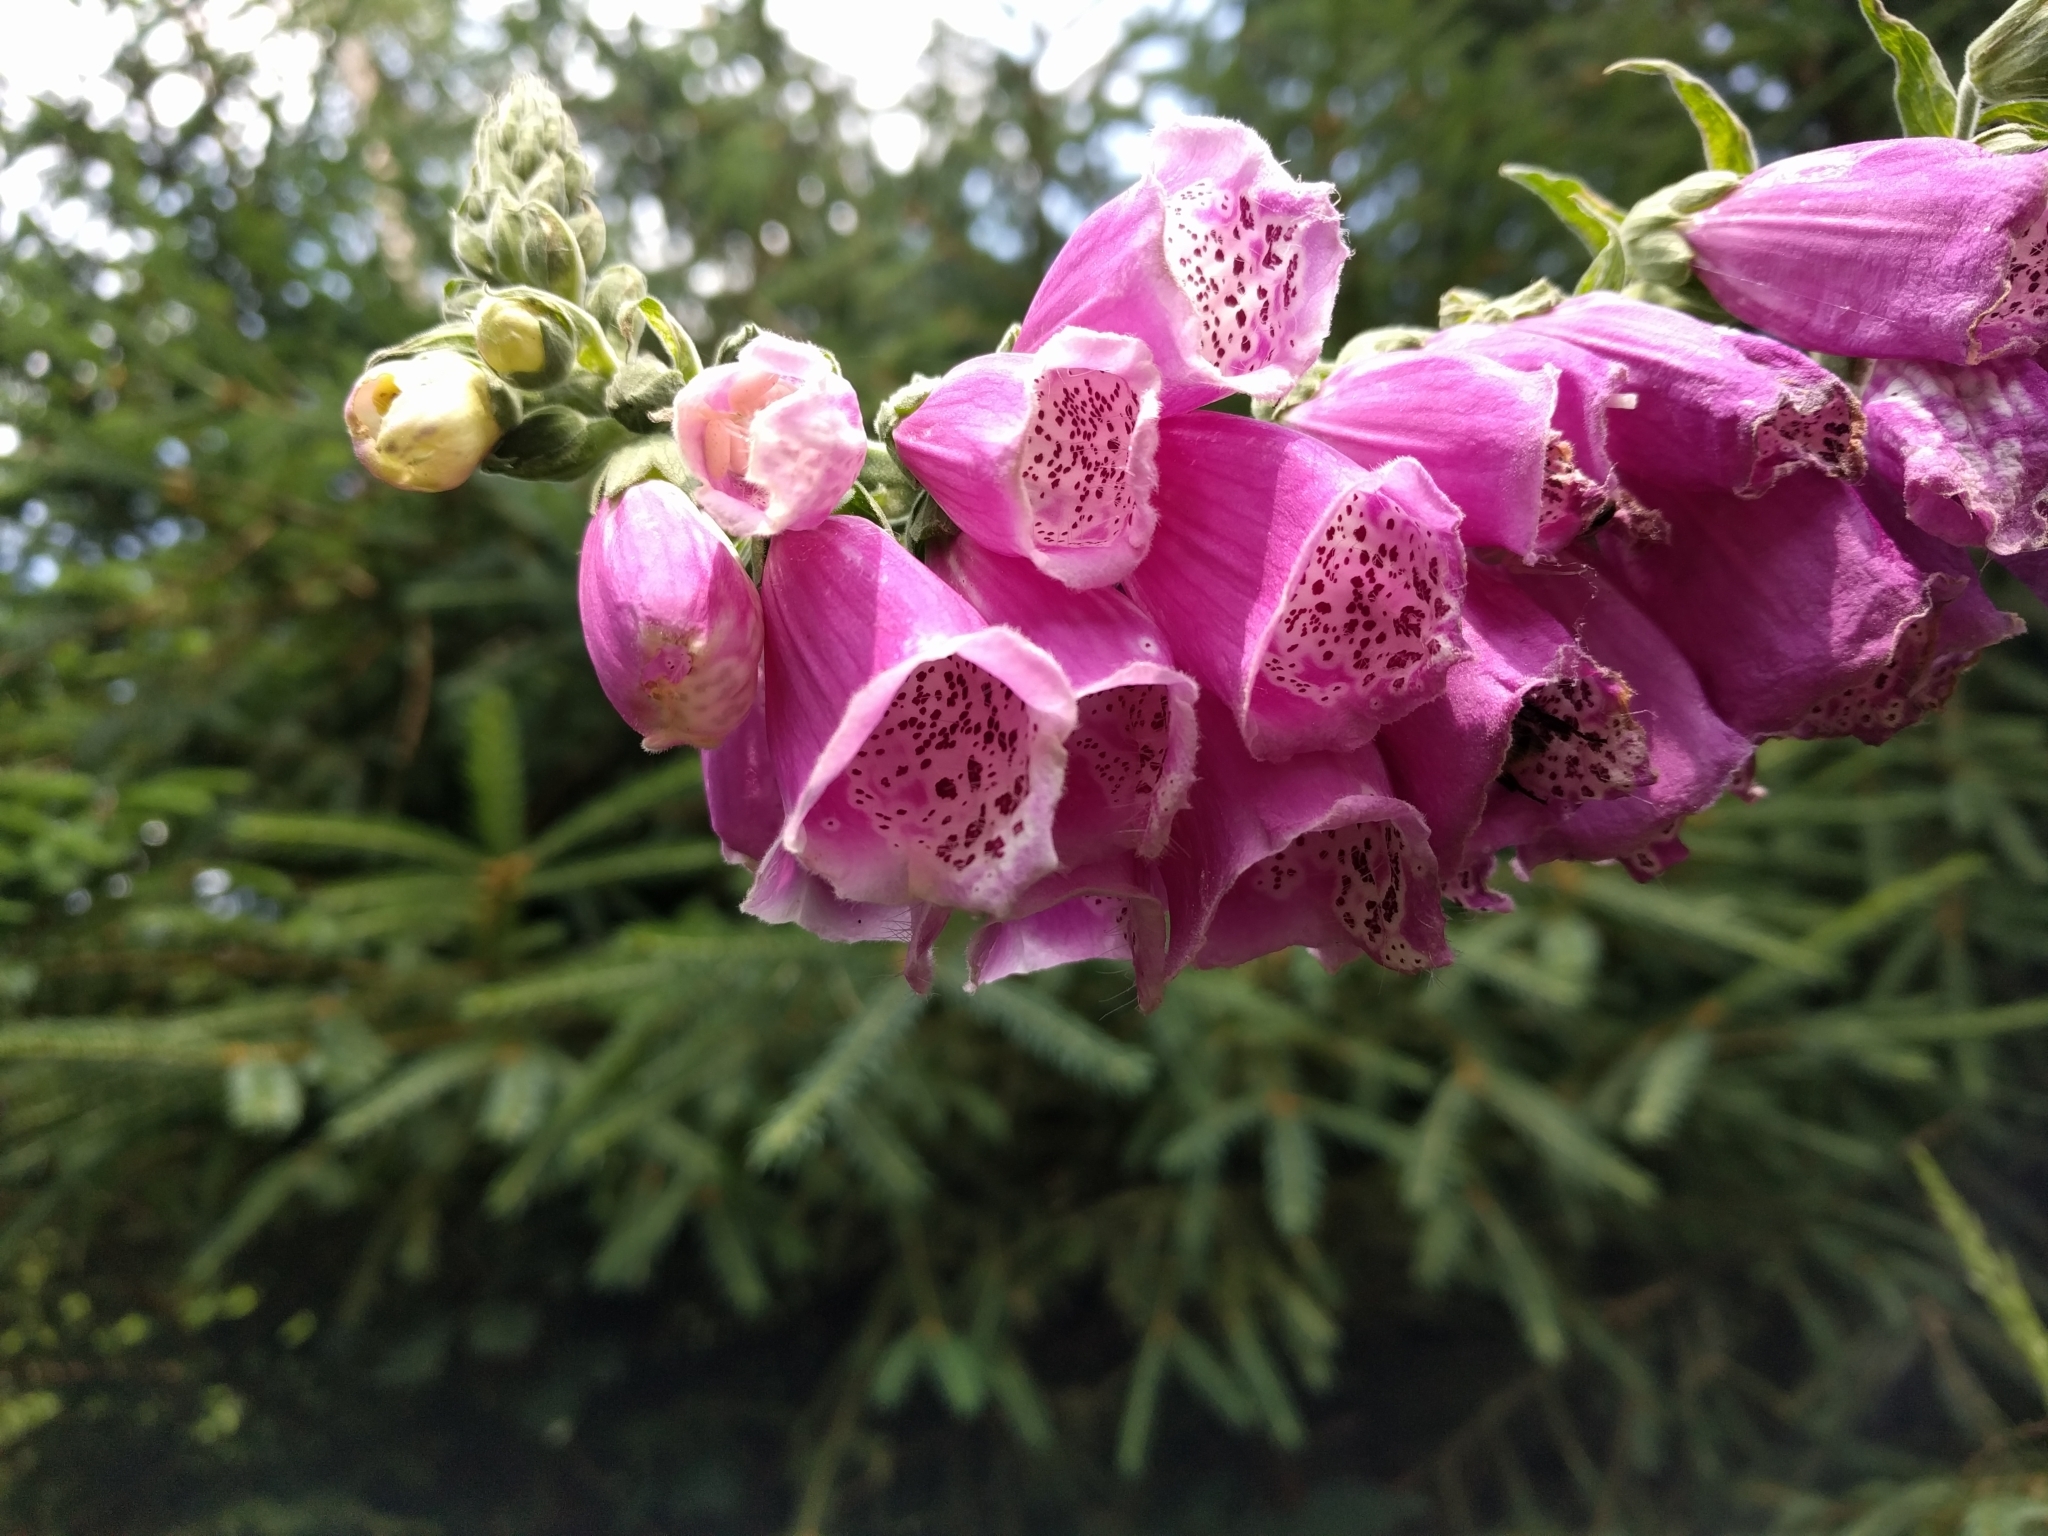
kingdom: Plantae
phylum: Tracheophyta
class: Magnoliopsida
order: Lamiales
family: Plantaginaceae
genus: Digitalis
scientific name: Digitalis purpurea
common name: Foxglove
